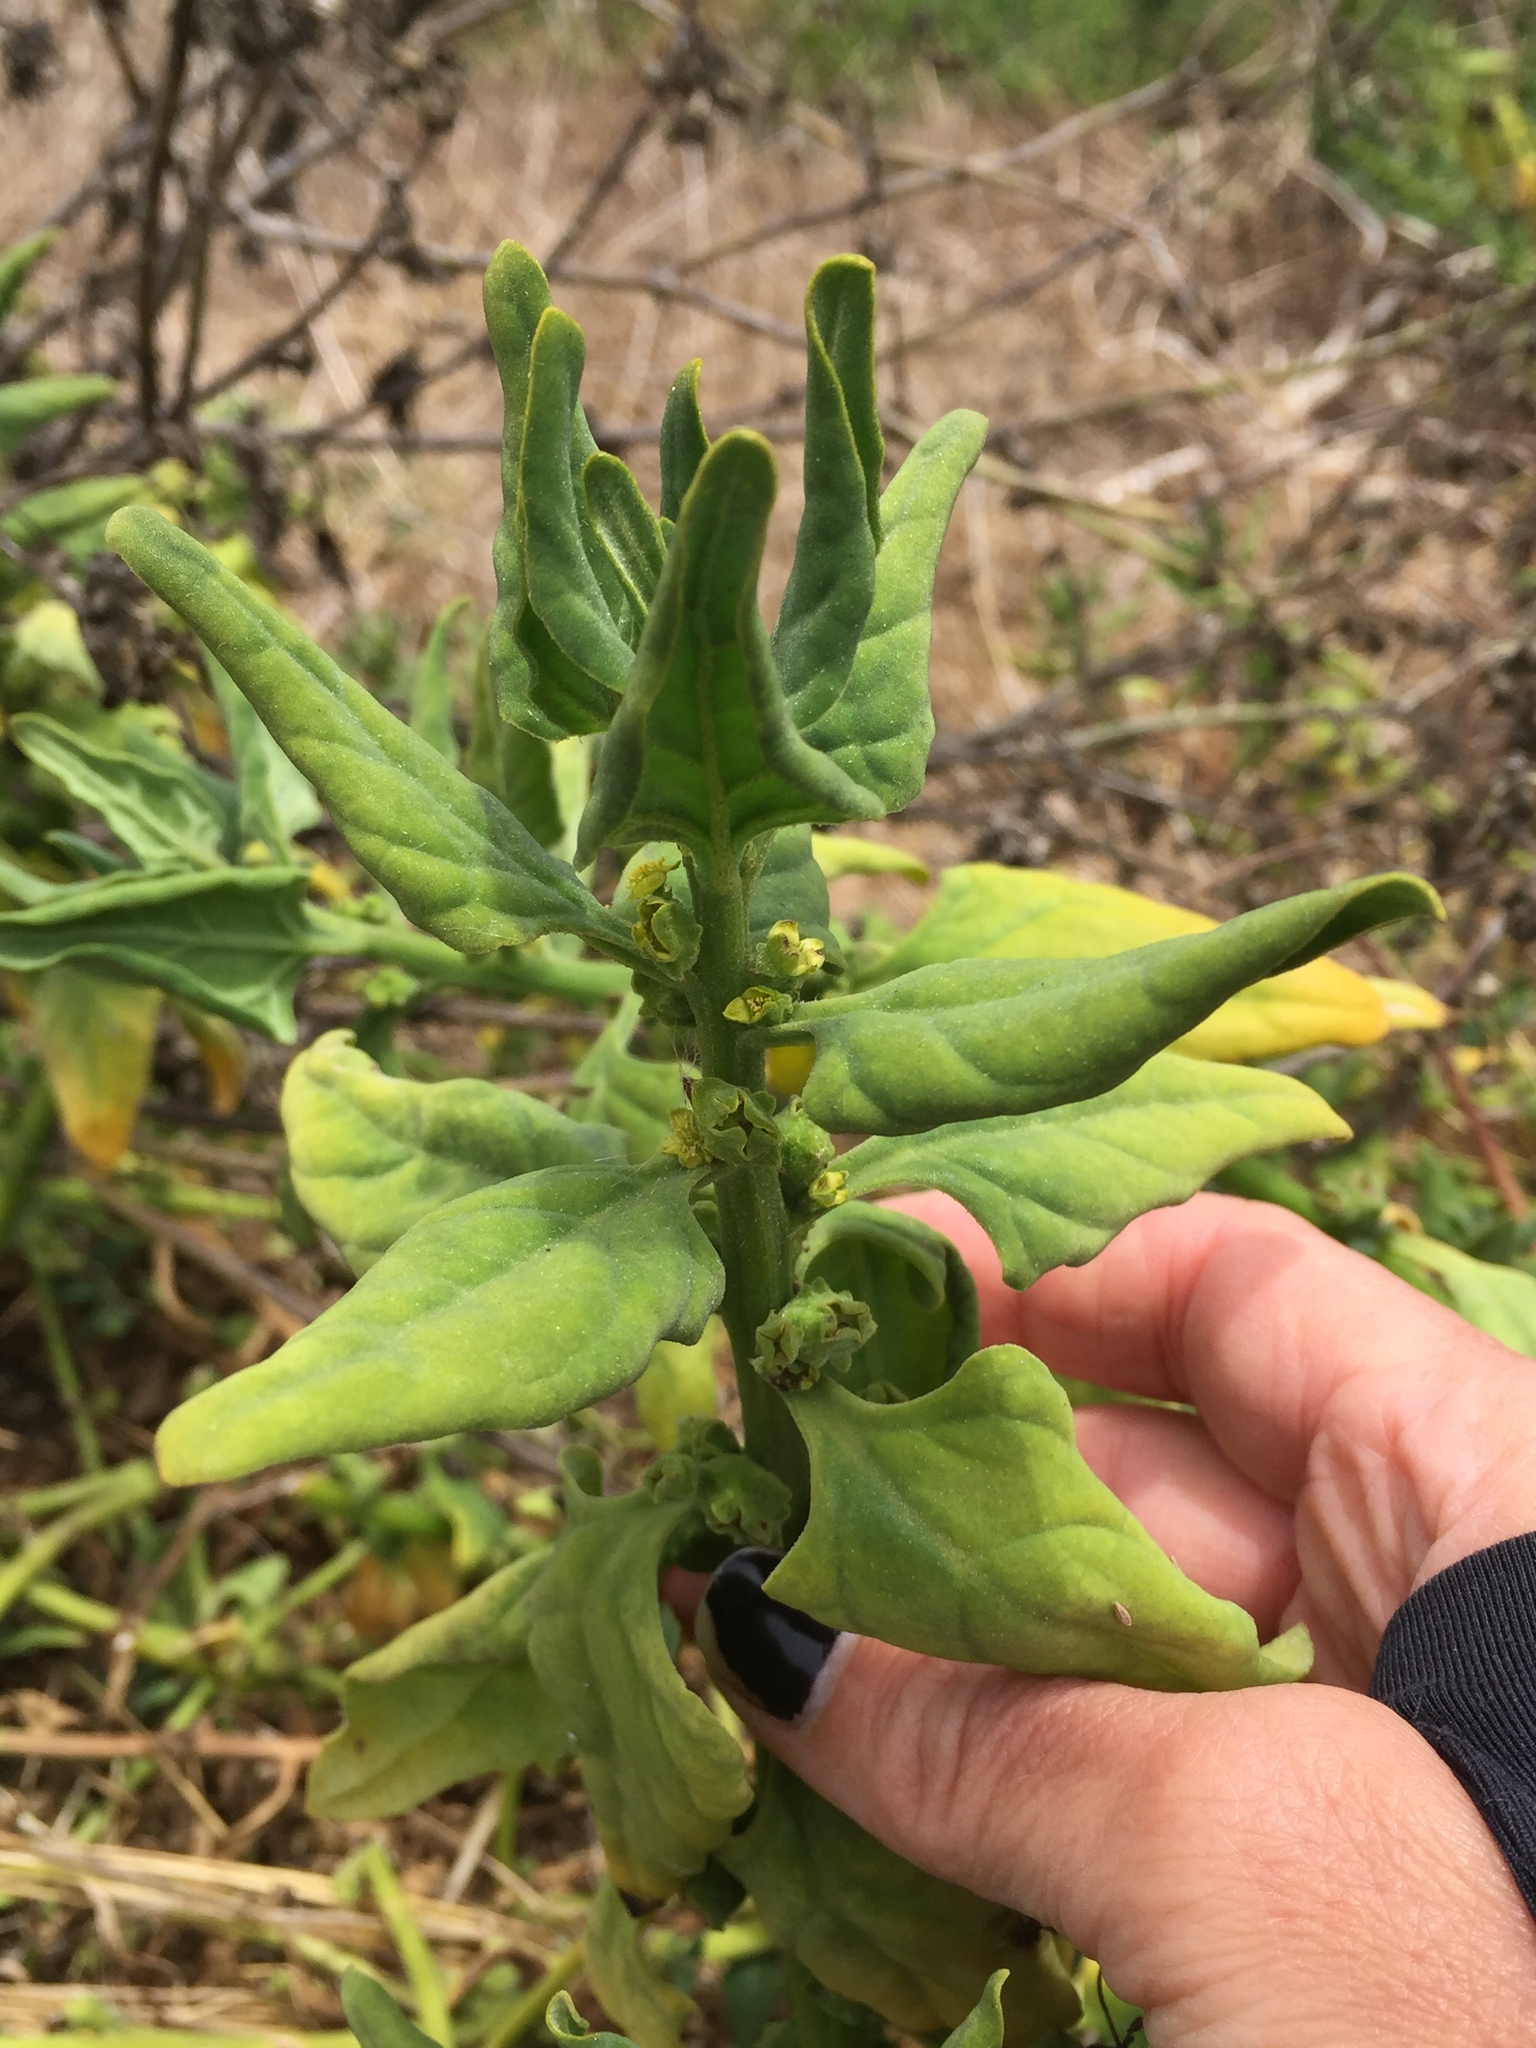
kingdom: Plantae
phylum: Tracheophyta
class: Magnoliopsida
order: Caryophyllales
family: Aizoaceae
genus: Tetragonia
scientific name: Tetragonia tetragonoides
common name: New zealand-spinach
